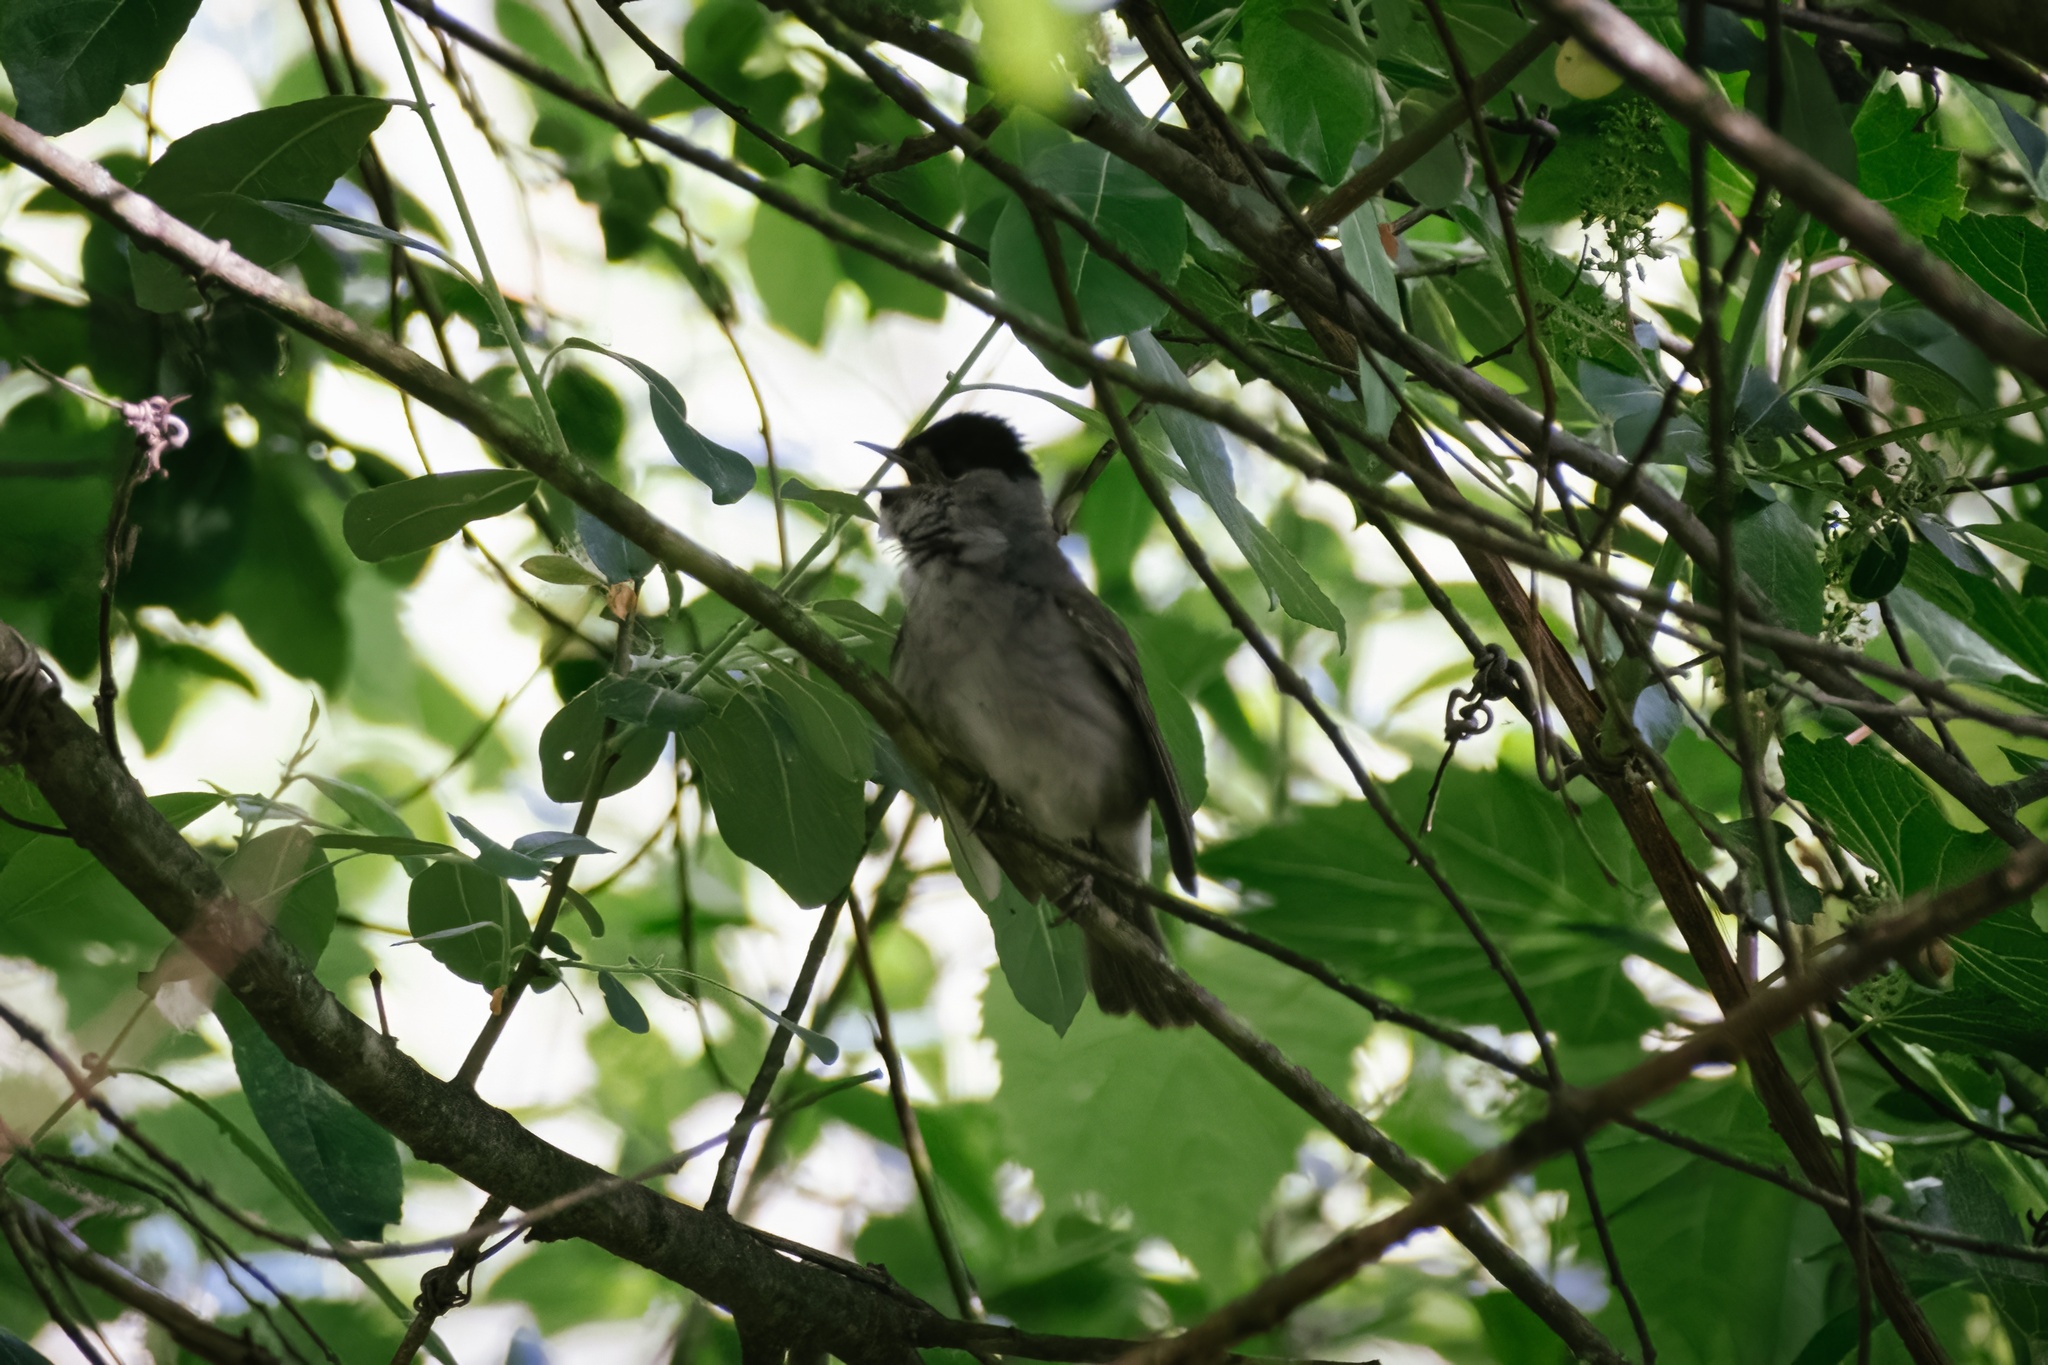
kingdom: Animalia
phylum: Chordata
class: Aves
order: Passeriformes
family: Sylviidae
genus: Sylvia
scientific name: Sylvia atricapilla
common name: Eurasian blackcap
